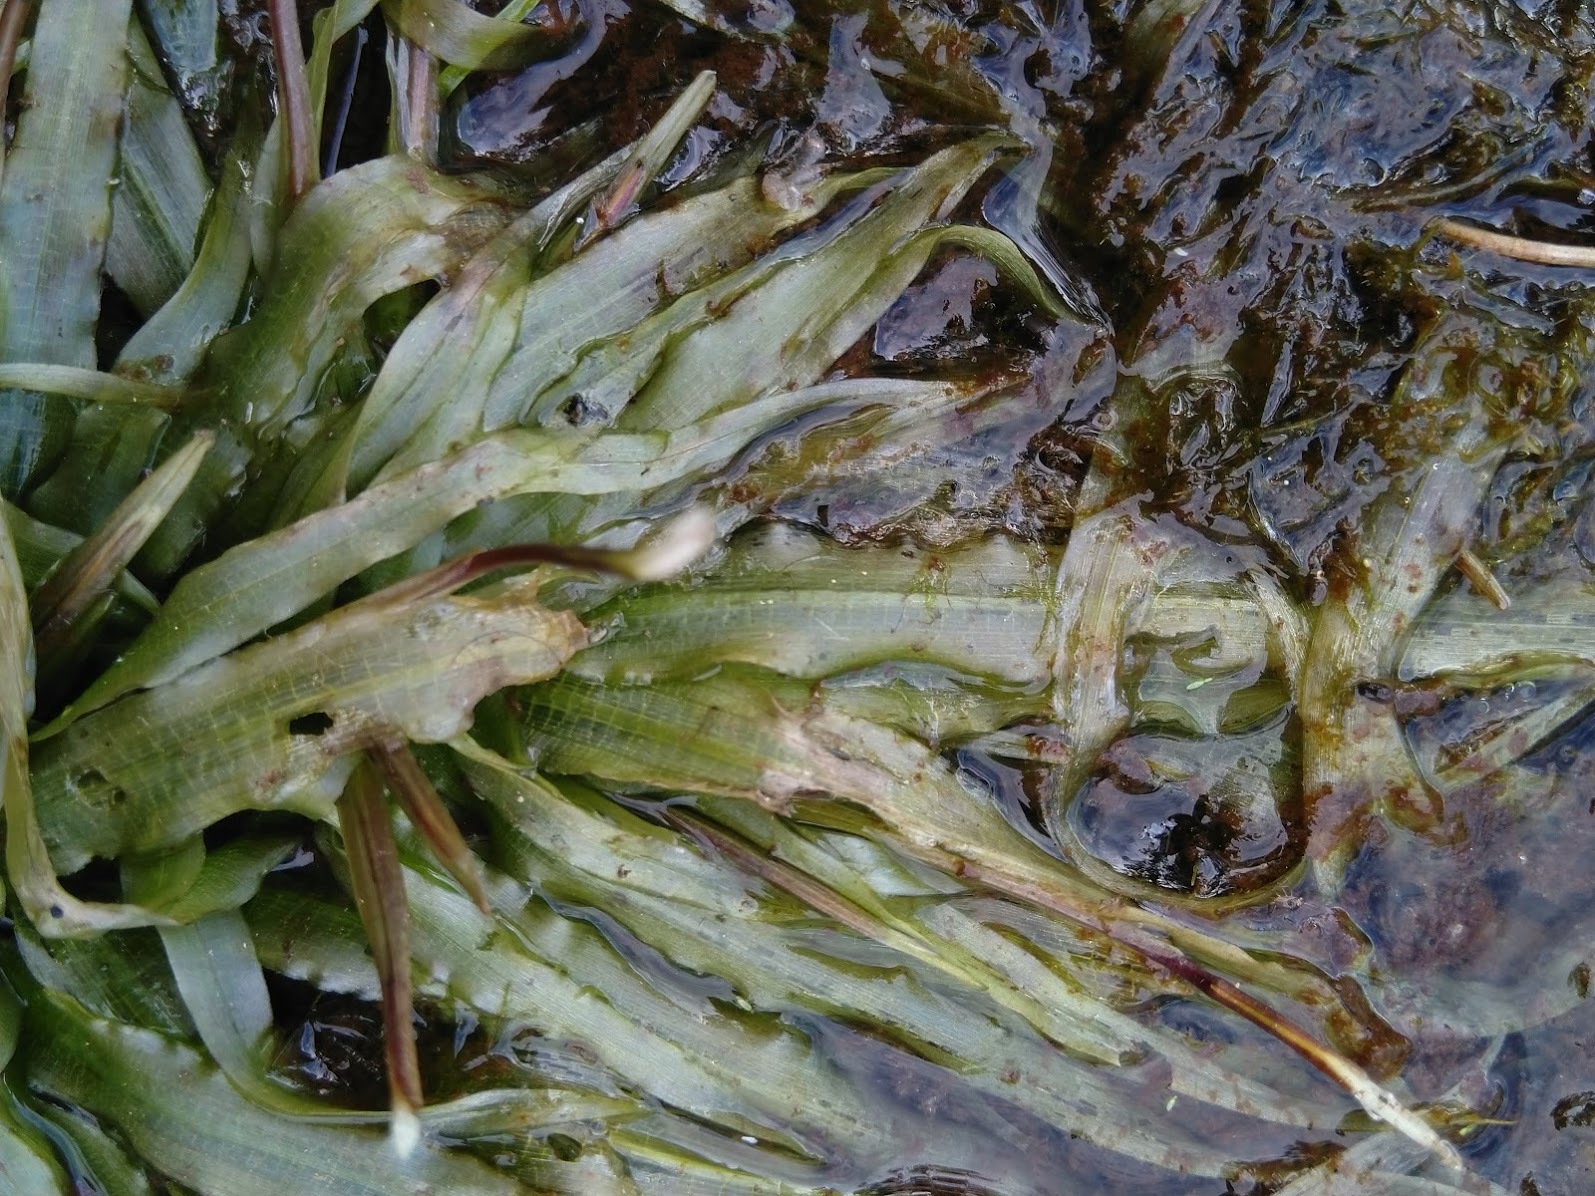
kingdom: Plantae
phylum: Tracheophyta
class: Liliopsida
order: Alismatales
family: Hydrocharitaceae
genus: Blyxa
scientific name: Blyxa aubertii
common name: Roundfruit blyxa
